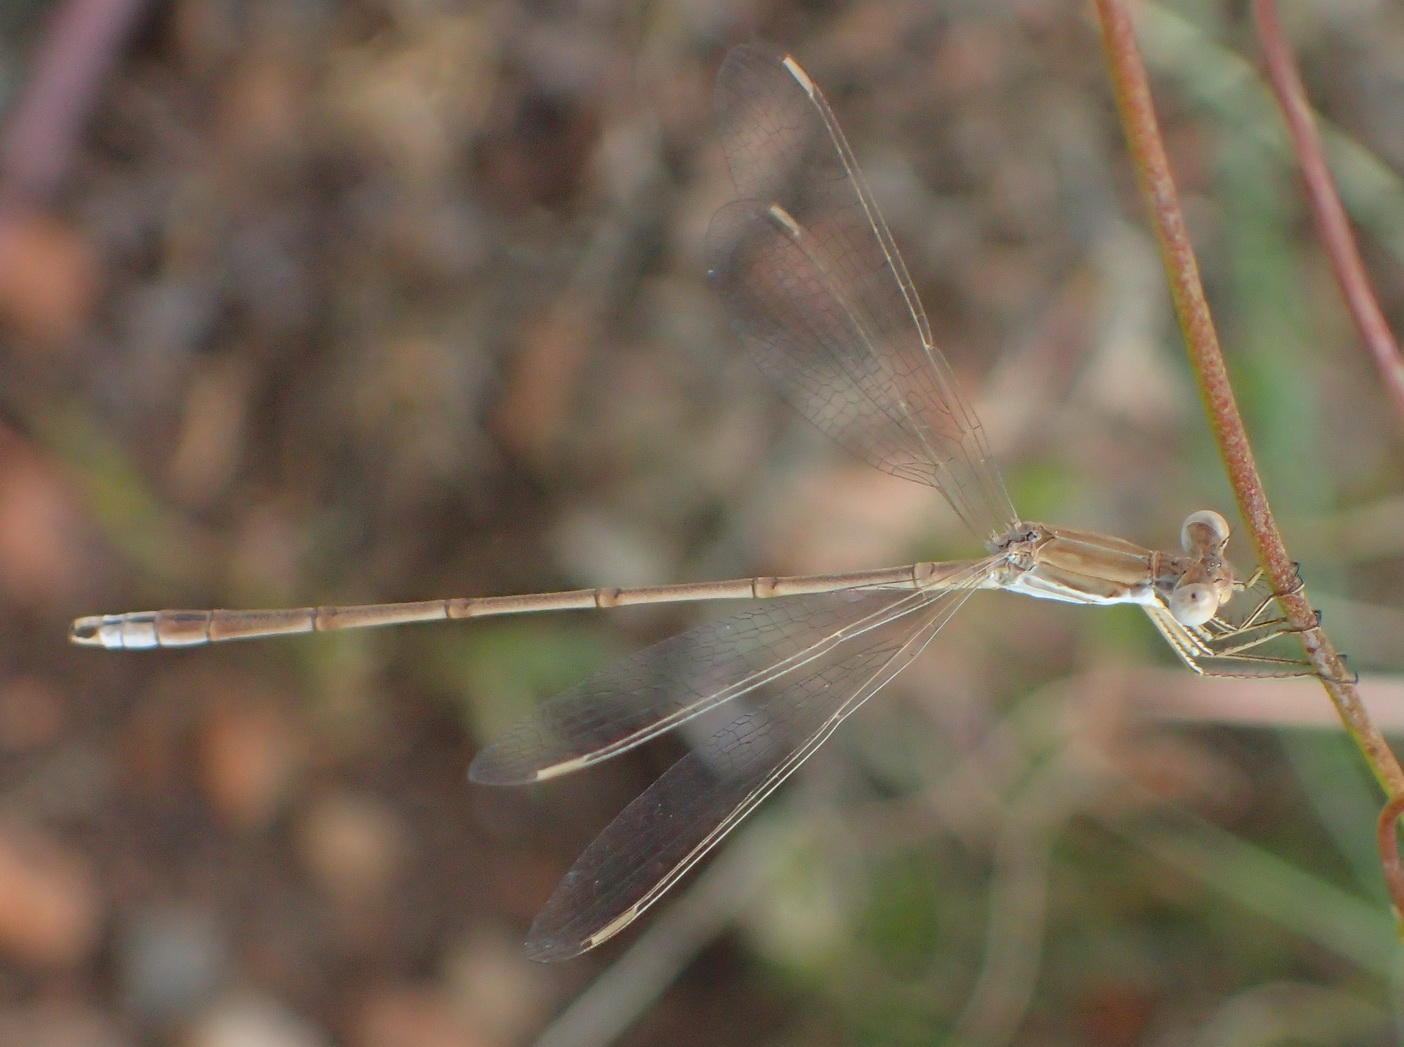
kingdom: Animalia
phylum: Arthropoda
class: Insecta
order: Odonata
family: Lestidae
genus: Lestes
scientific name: Lestes pallidus
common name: Pallid spreadwing
